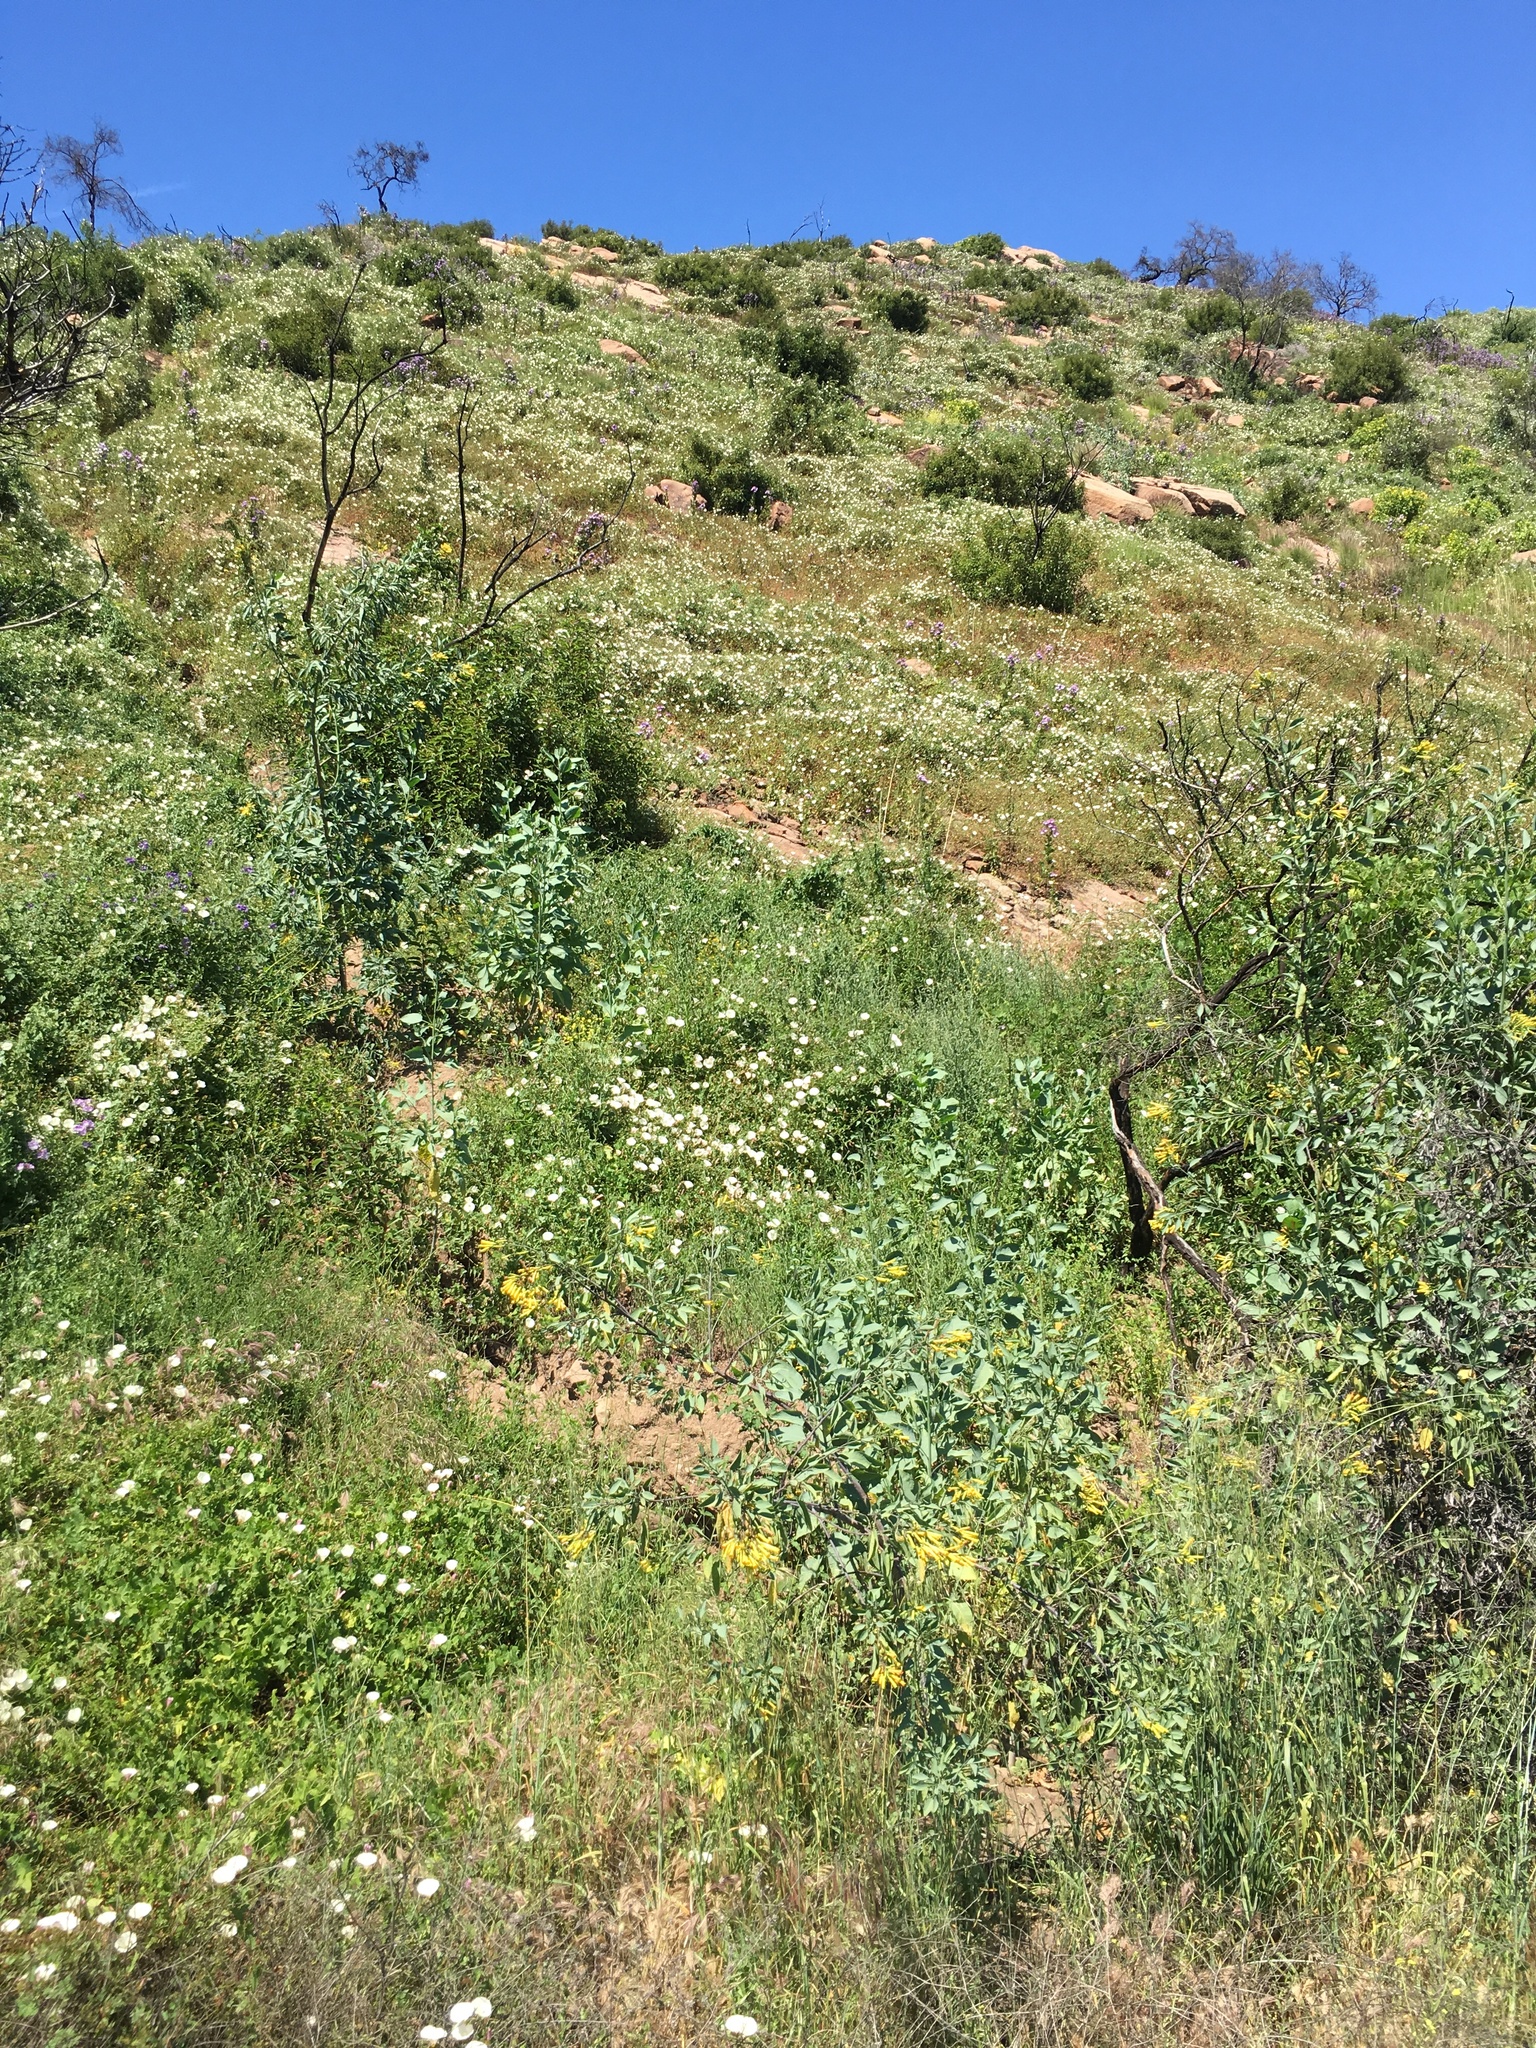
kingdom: Plantae
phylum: Tracheophyta
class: Magnoliopsida
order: Solanales
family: Solanaceae
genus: Nicotiana
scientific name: Nicotiana glauca
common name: Tree tobacco
